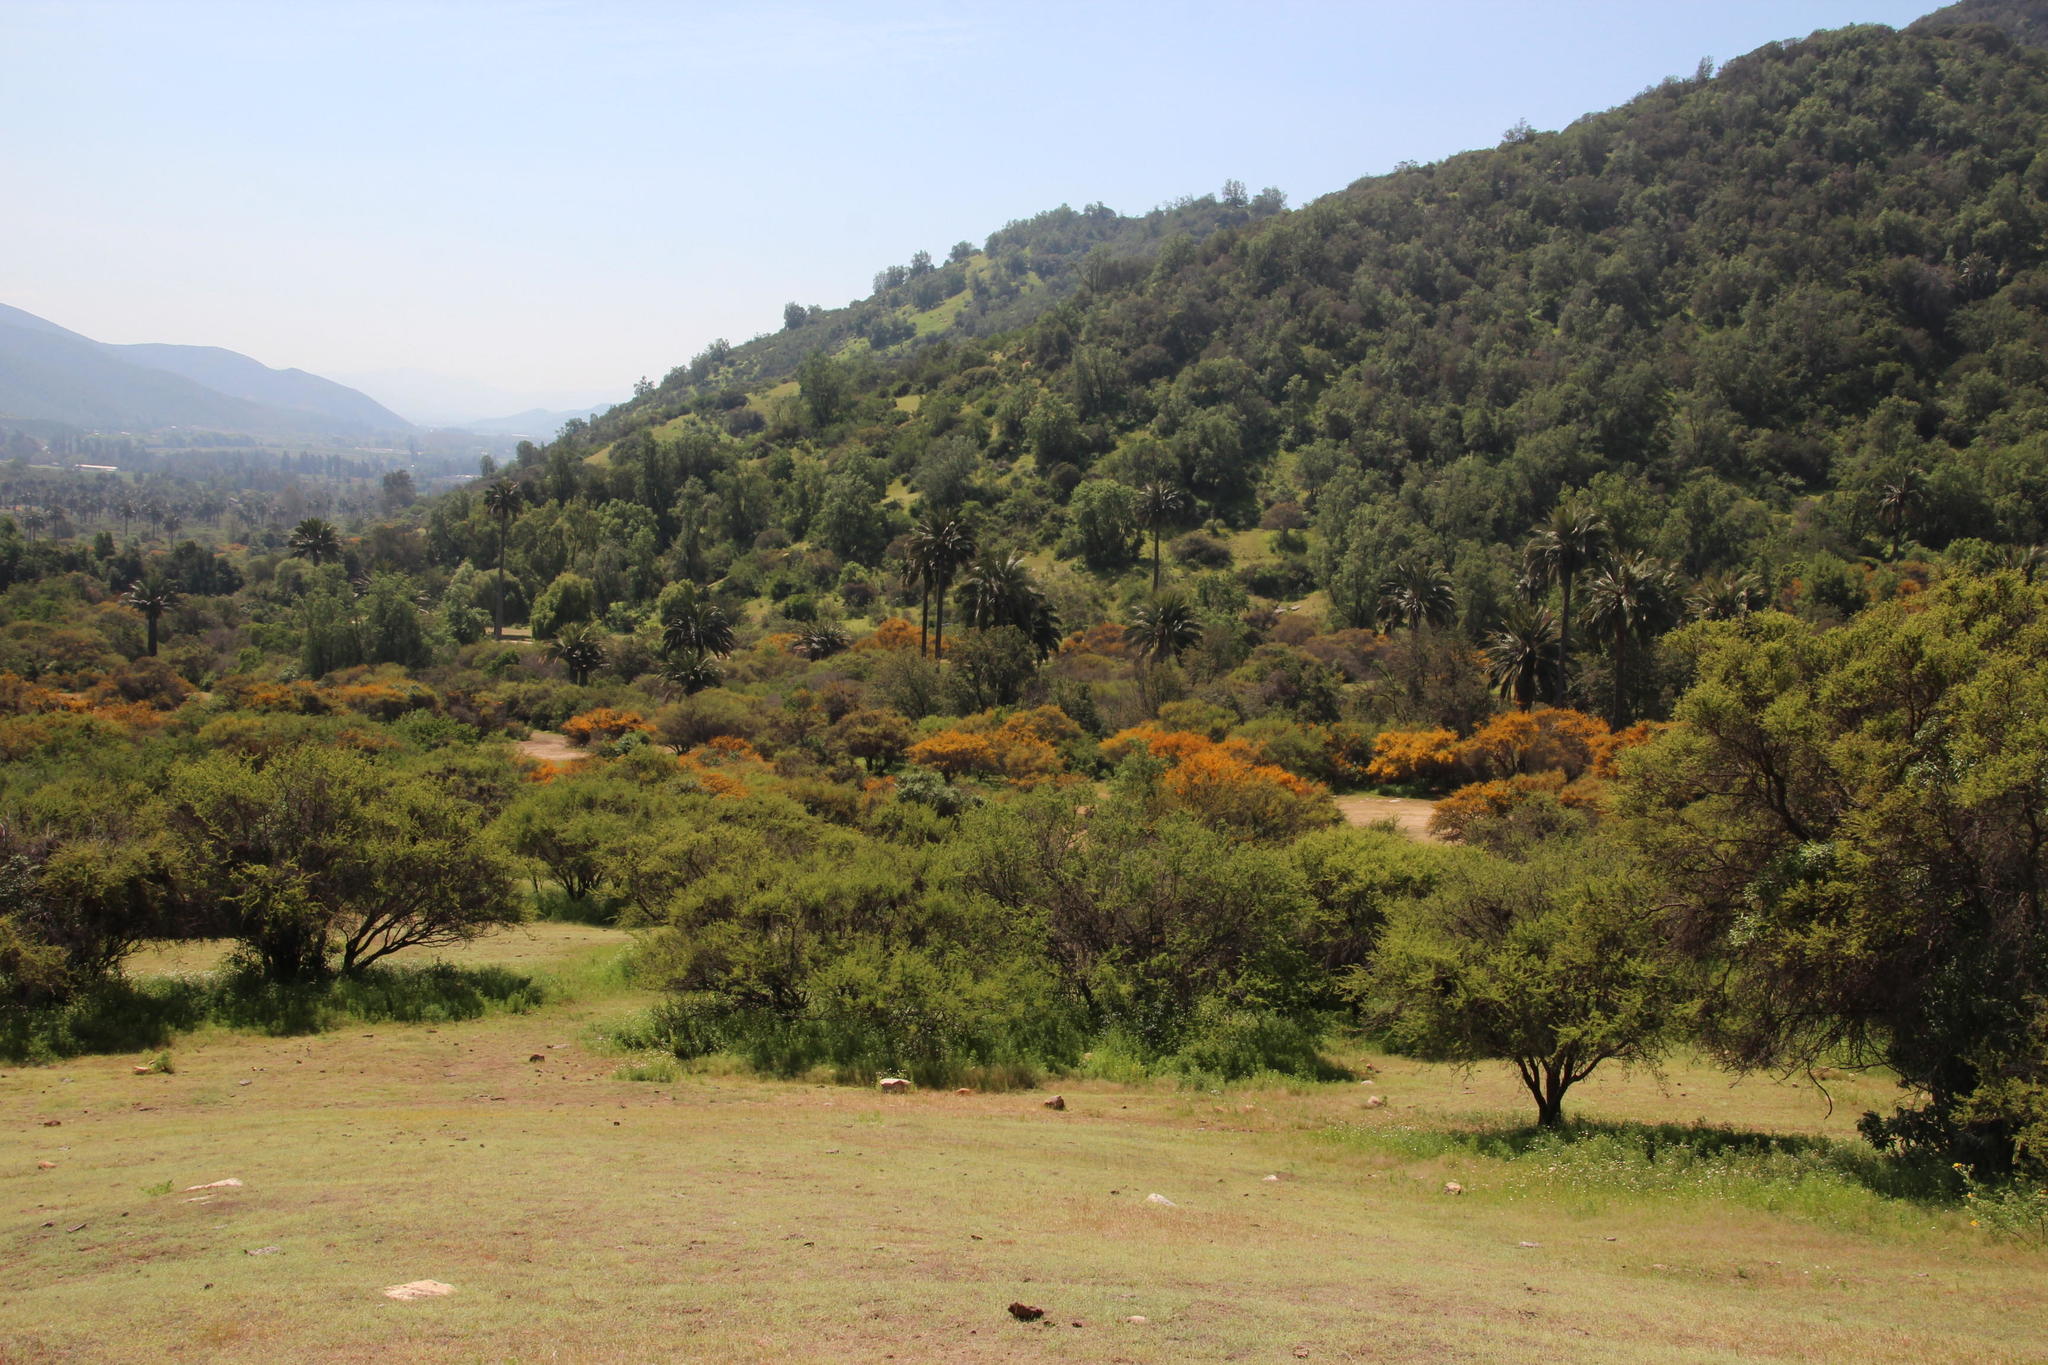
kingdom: Plantae
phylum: Tracheophyta
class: Magnoliopsida
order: Fabales
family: Fabaceae
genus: Vachellia
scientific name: Vachellia caven
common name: Roman cassie
